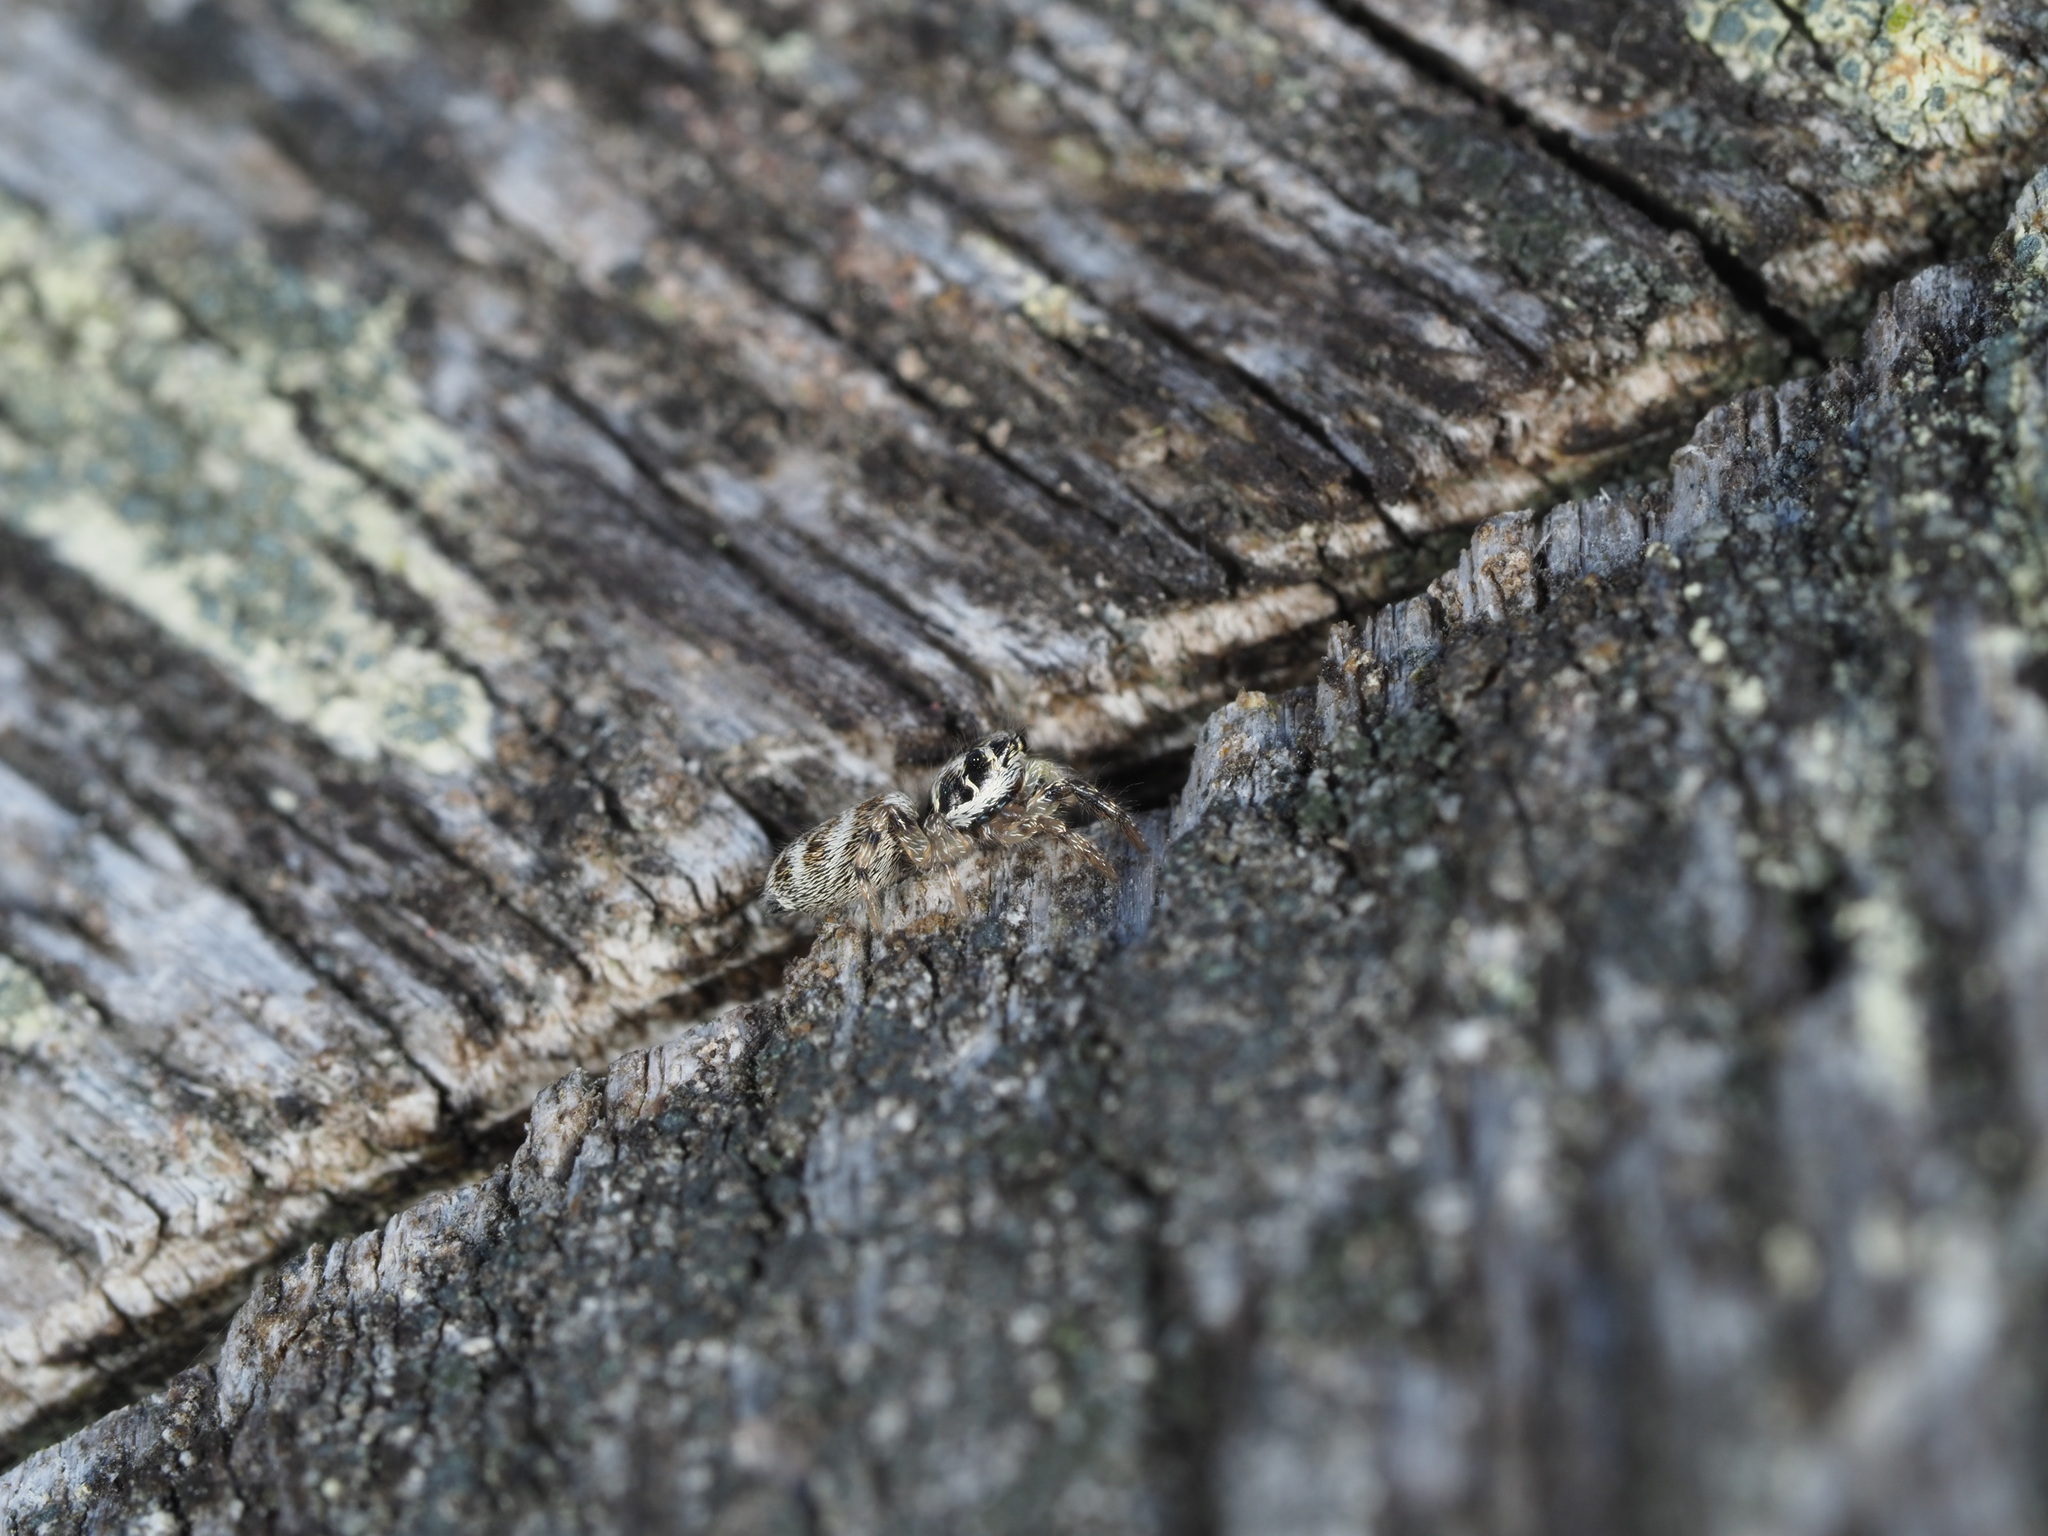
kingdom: Animalia
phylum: Arthropoda
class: Arachnida
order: Araneae
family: Salticidae
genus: Salticus
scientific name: Salticus scenicus
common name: Zebra jumper
